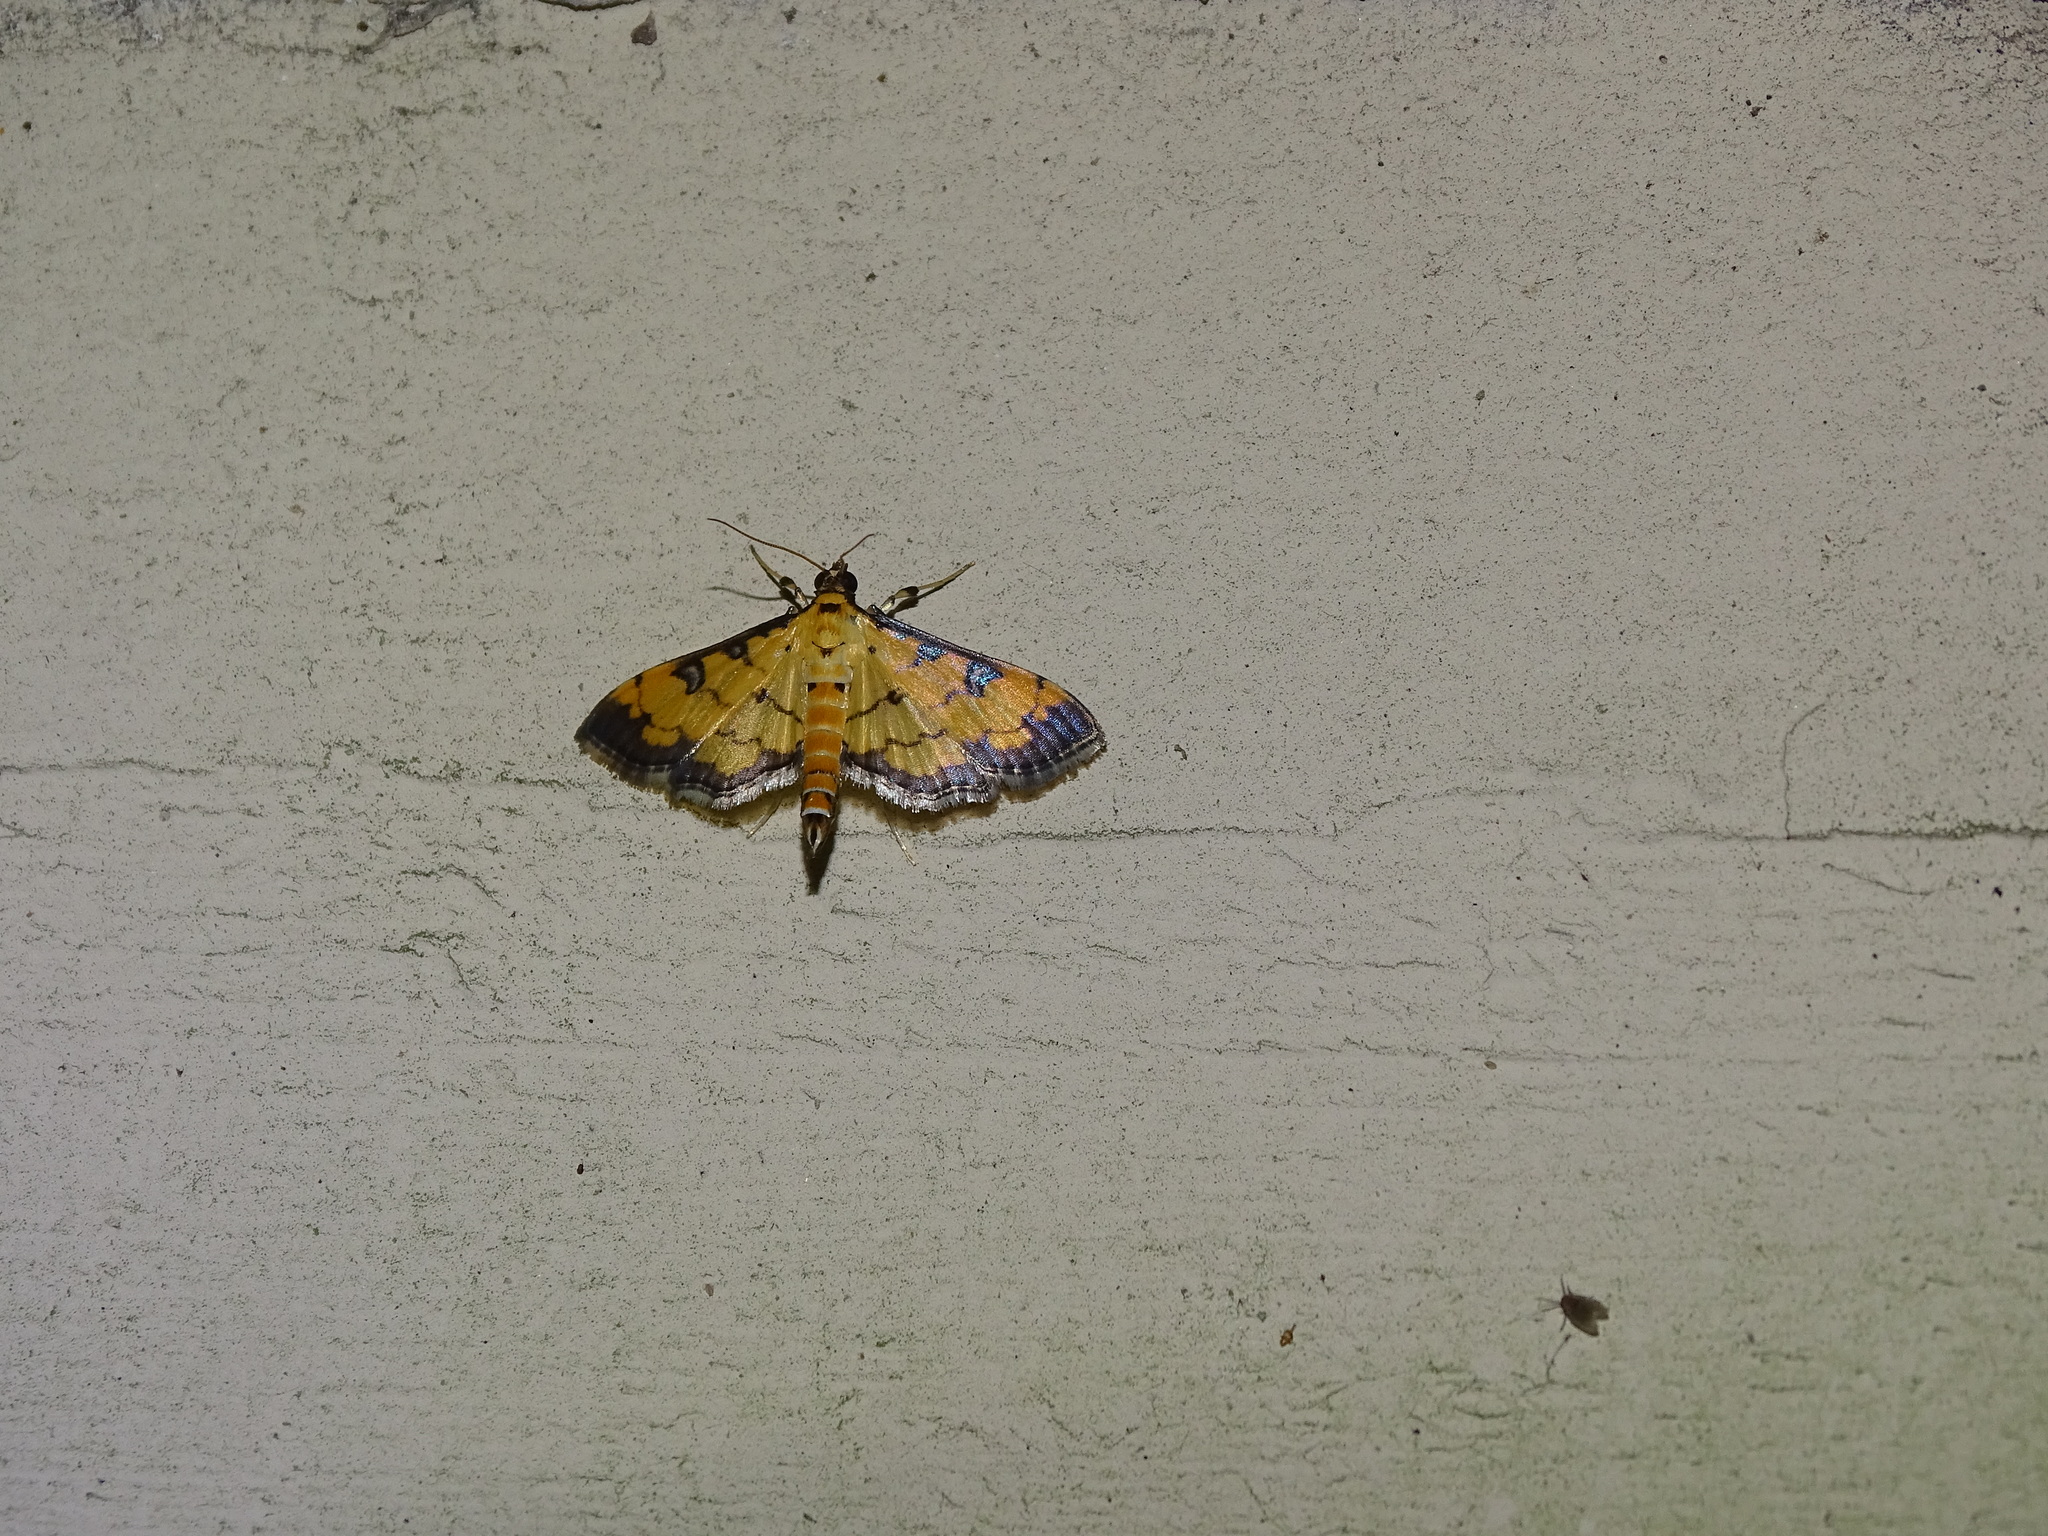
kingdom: Animalia
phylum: Arthropoda
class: Insecta
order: Lepidoptera
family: Crambidae
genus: Ategumia
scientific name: Ategumia ebulealis
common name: Moth
